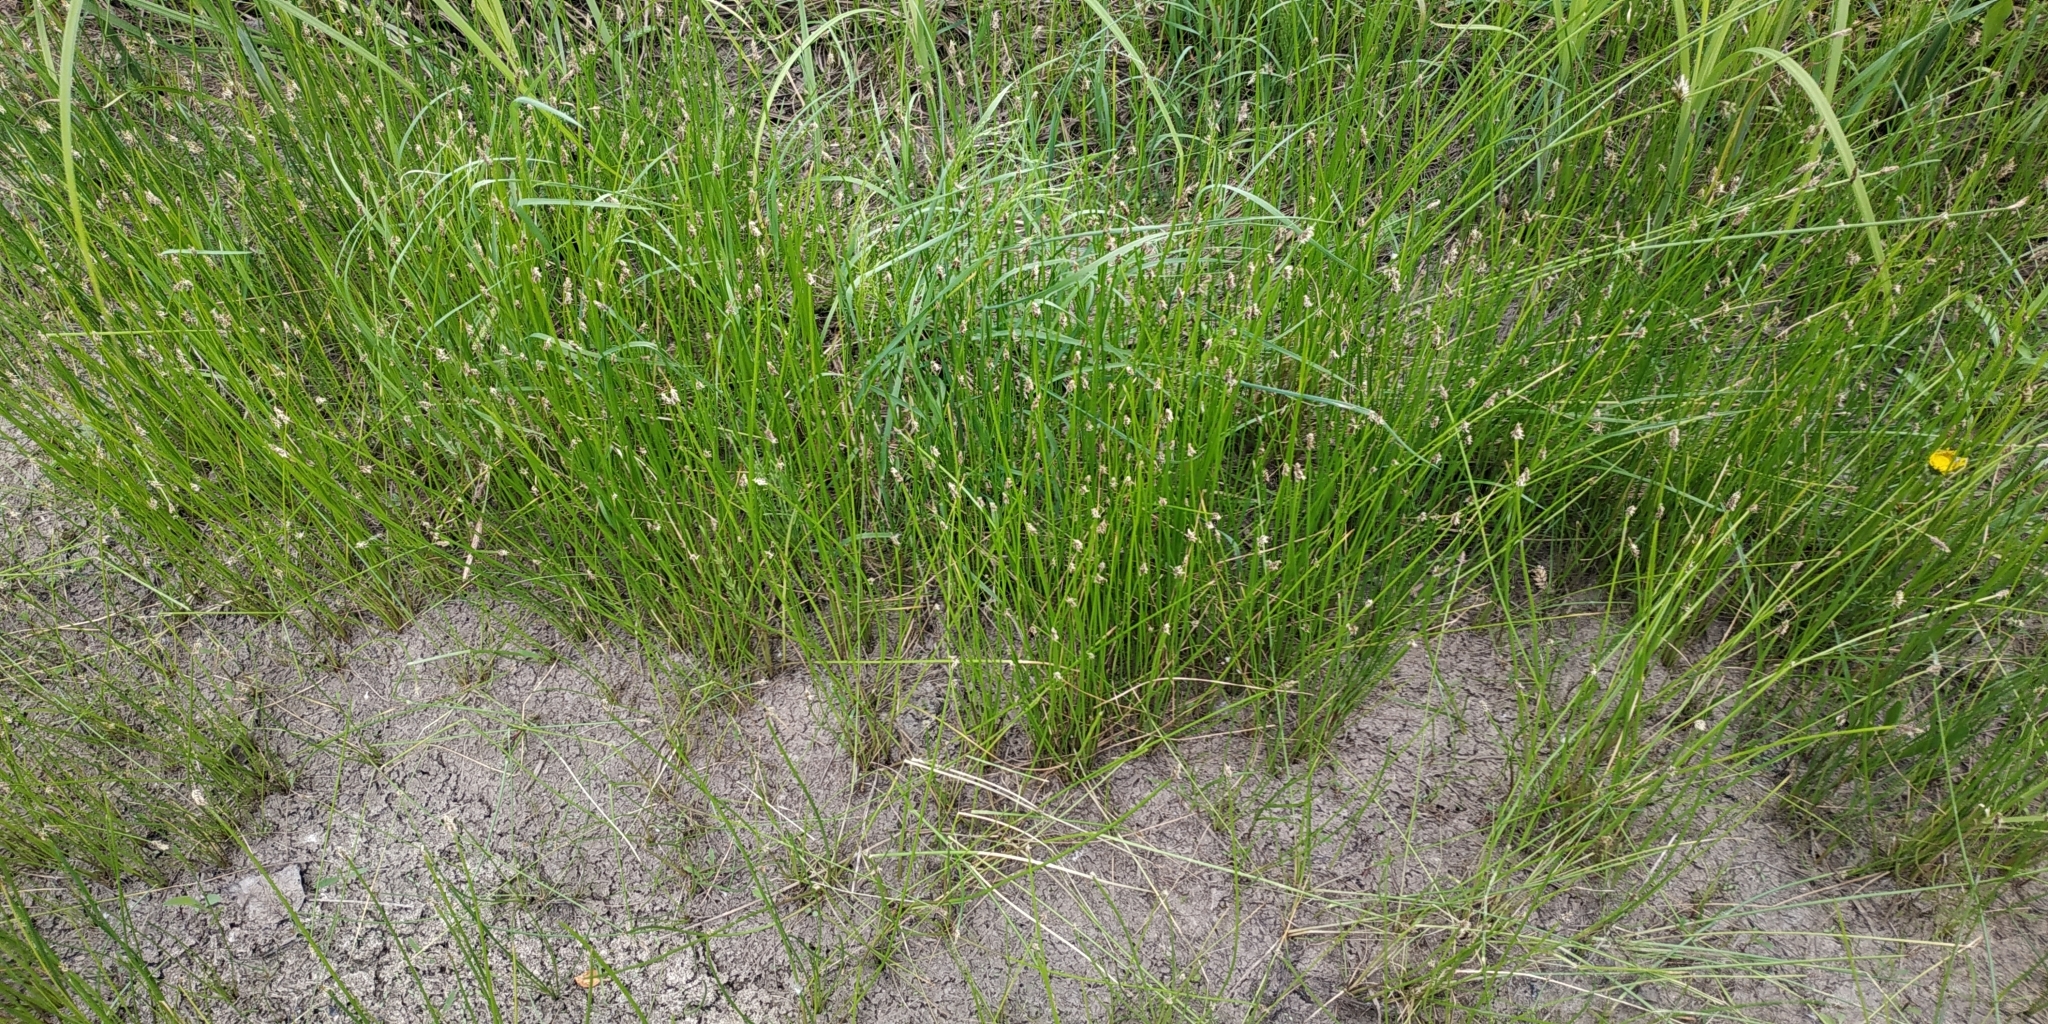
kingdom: Plantae
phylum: Tracheophyta
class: Liliopsida
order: Poales
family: Cyperaceae
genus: Eleocharis
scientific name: Eleocharis palustris
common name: Common spike-rush
